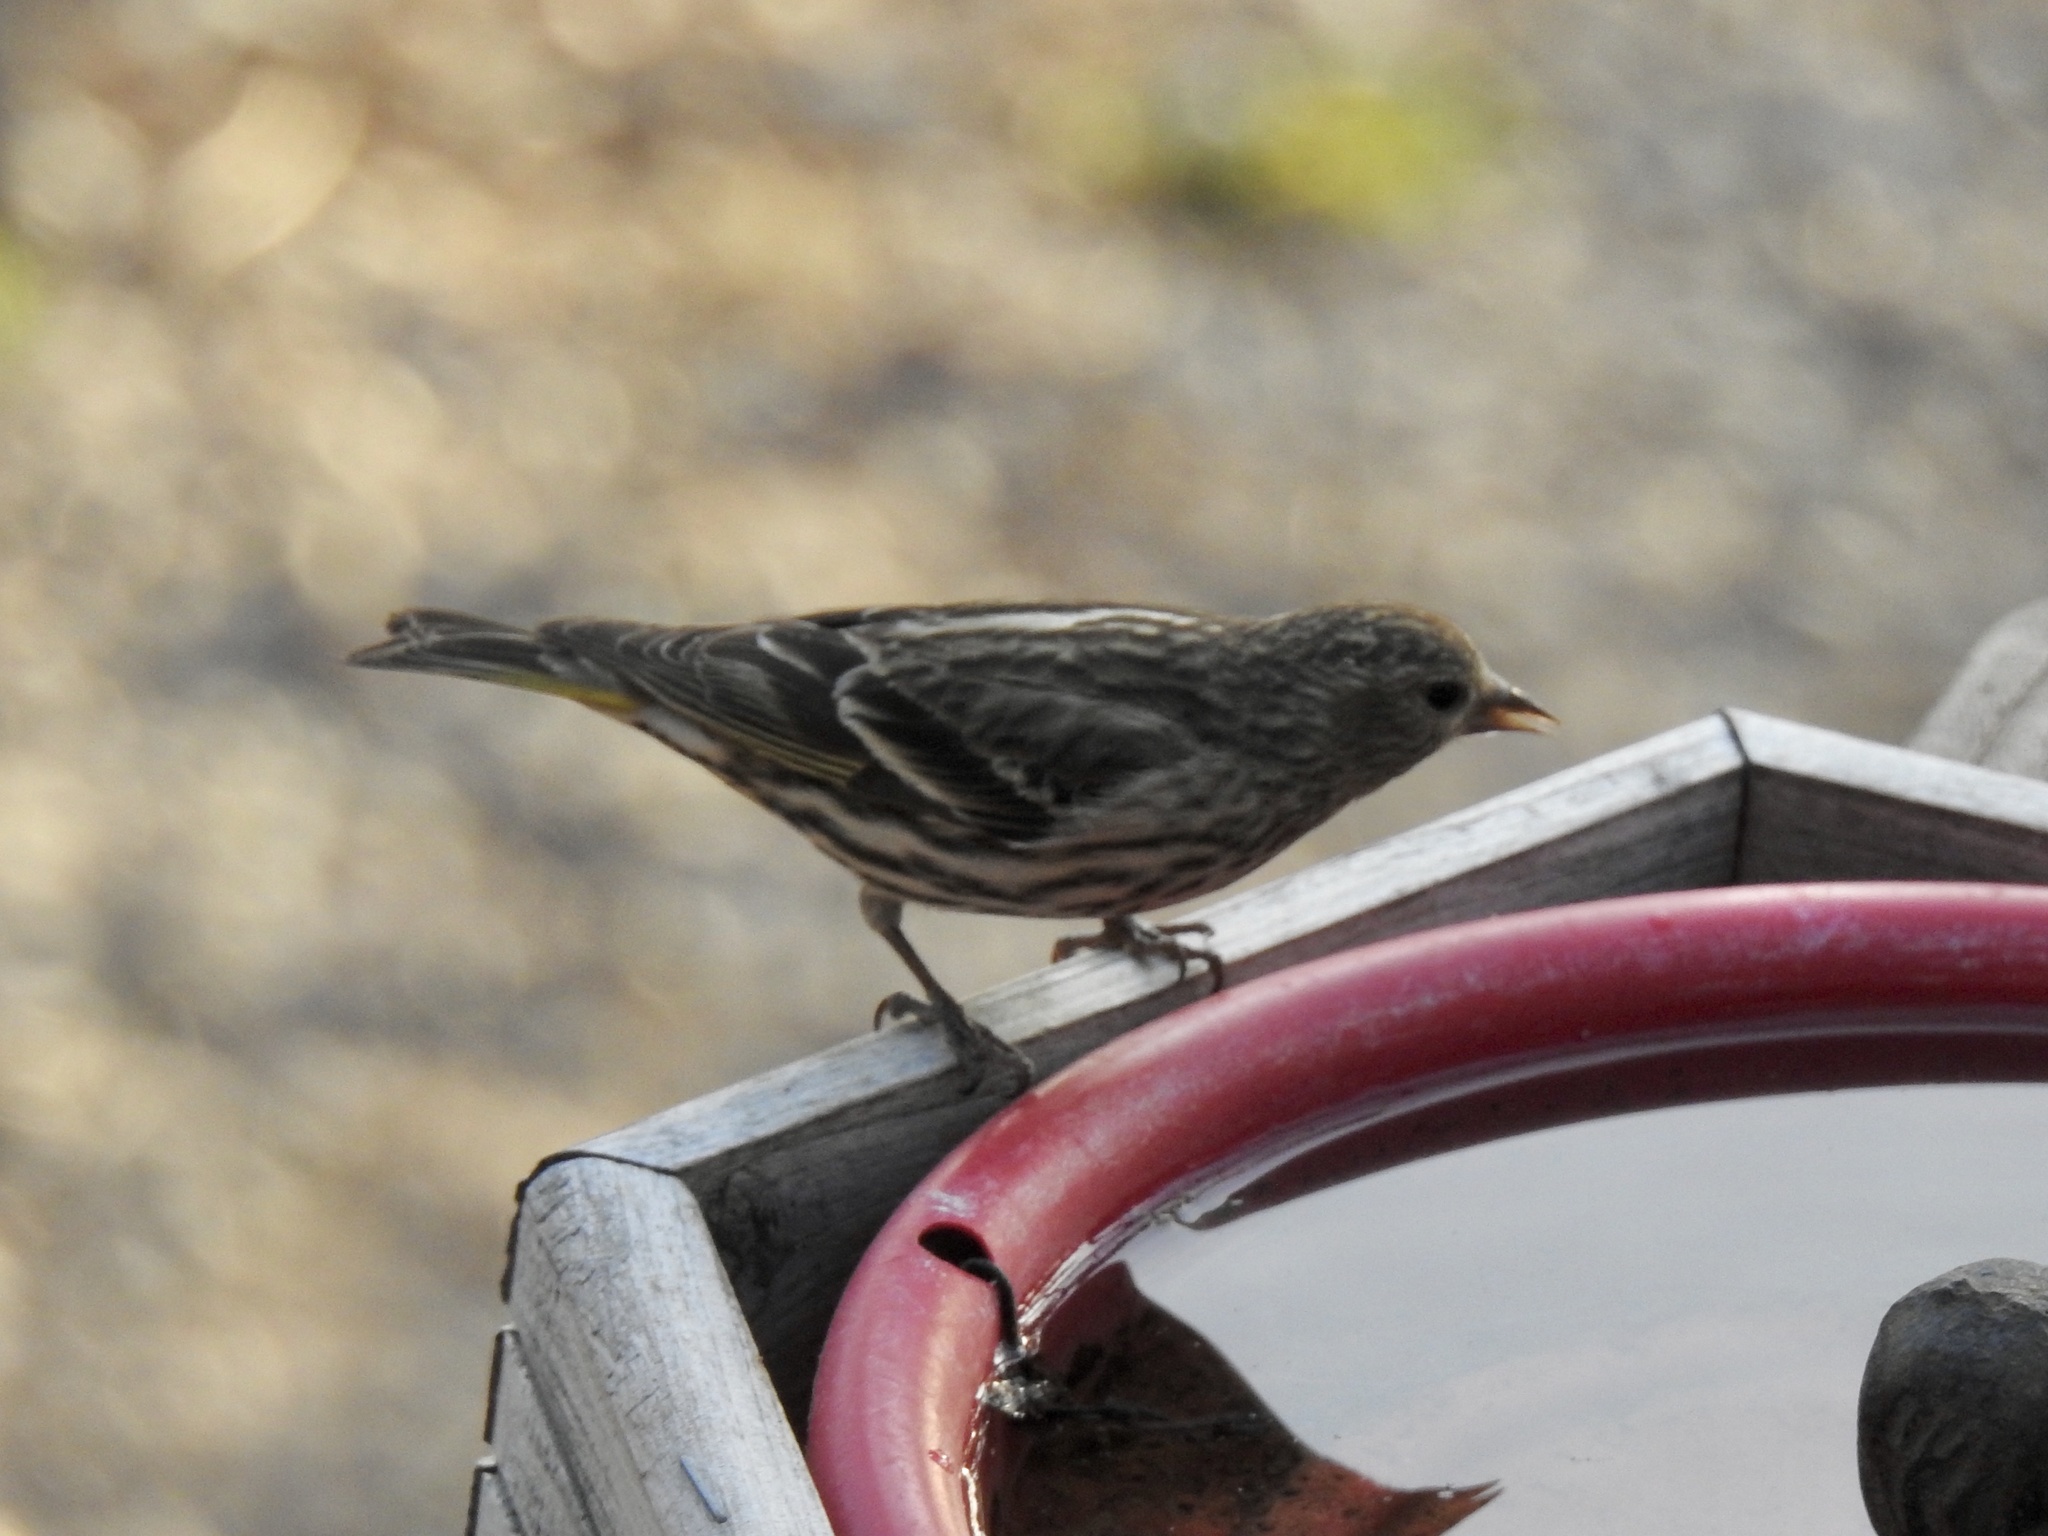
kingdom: Animalia
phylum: Chordata
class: Aves
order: Passeriformes
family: Fringillidae
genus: Spinus
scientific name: Spinus pinus
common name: Pine siskin
